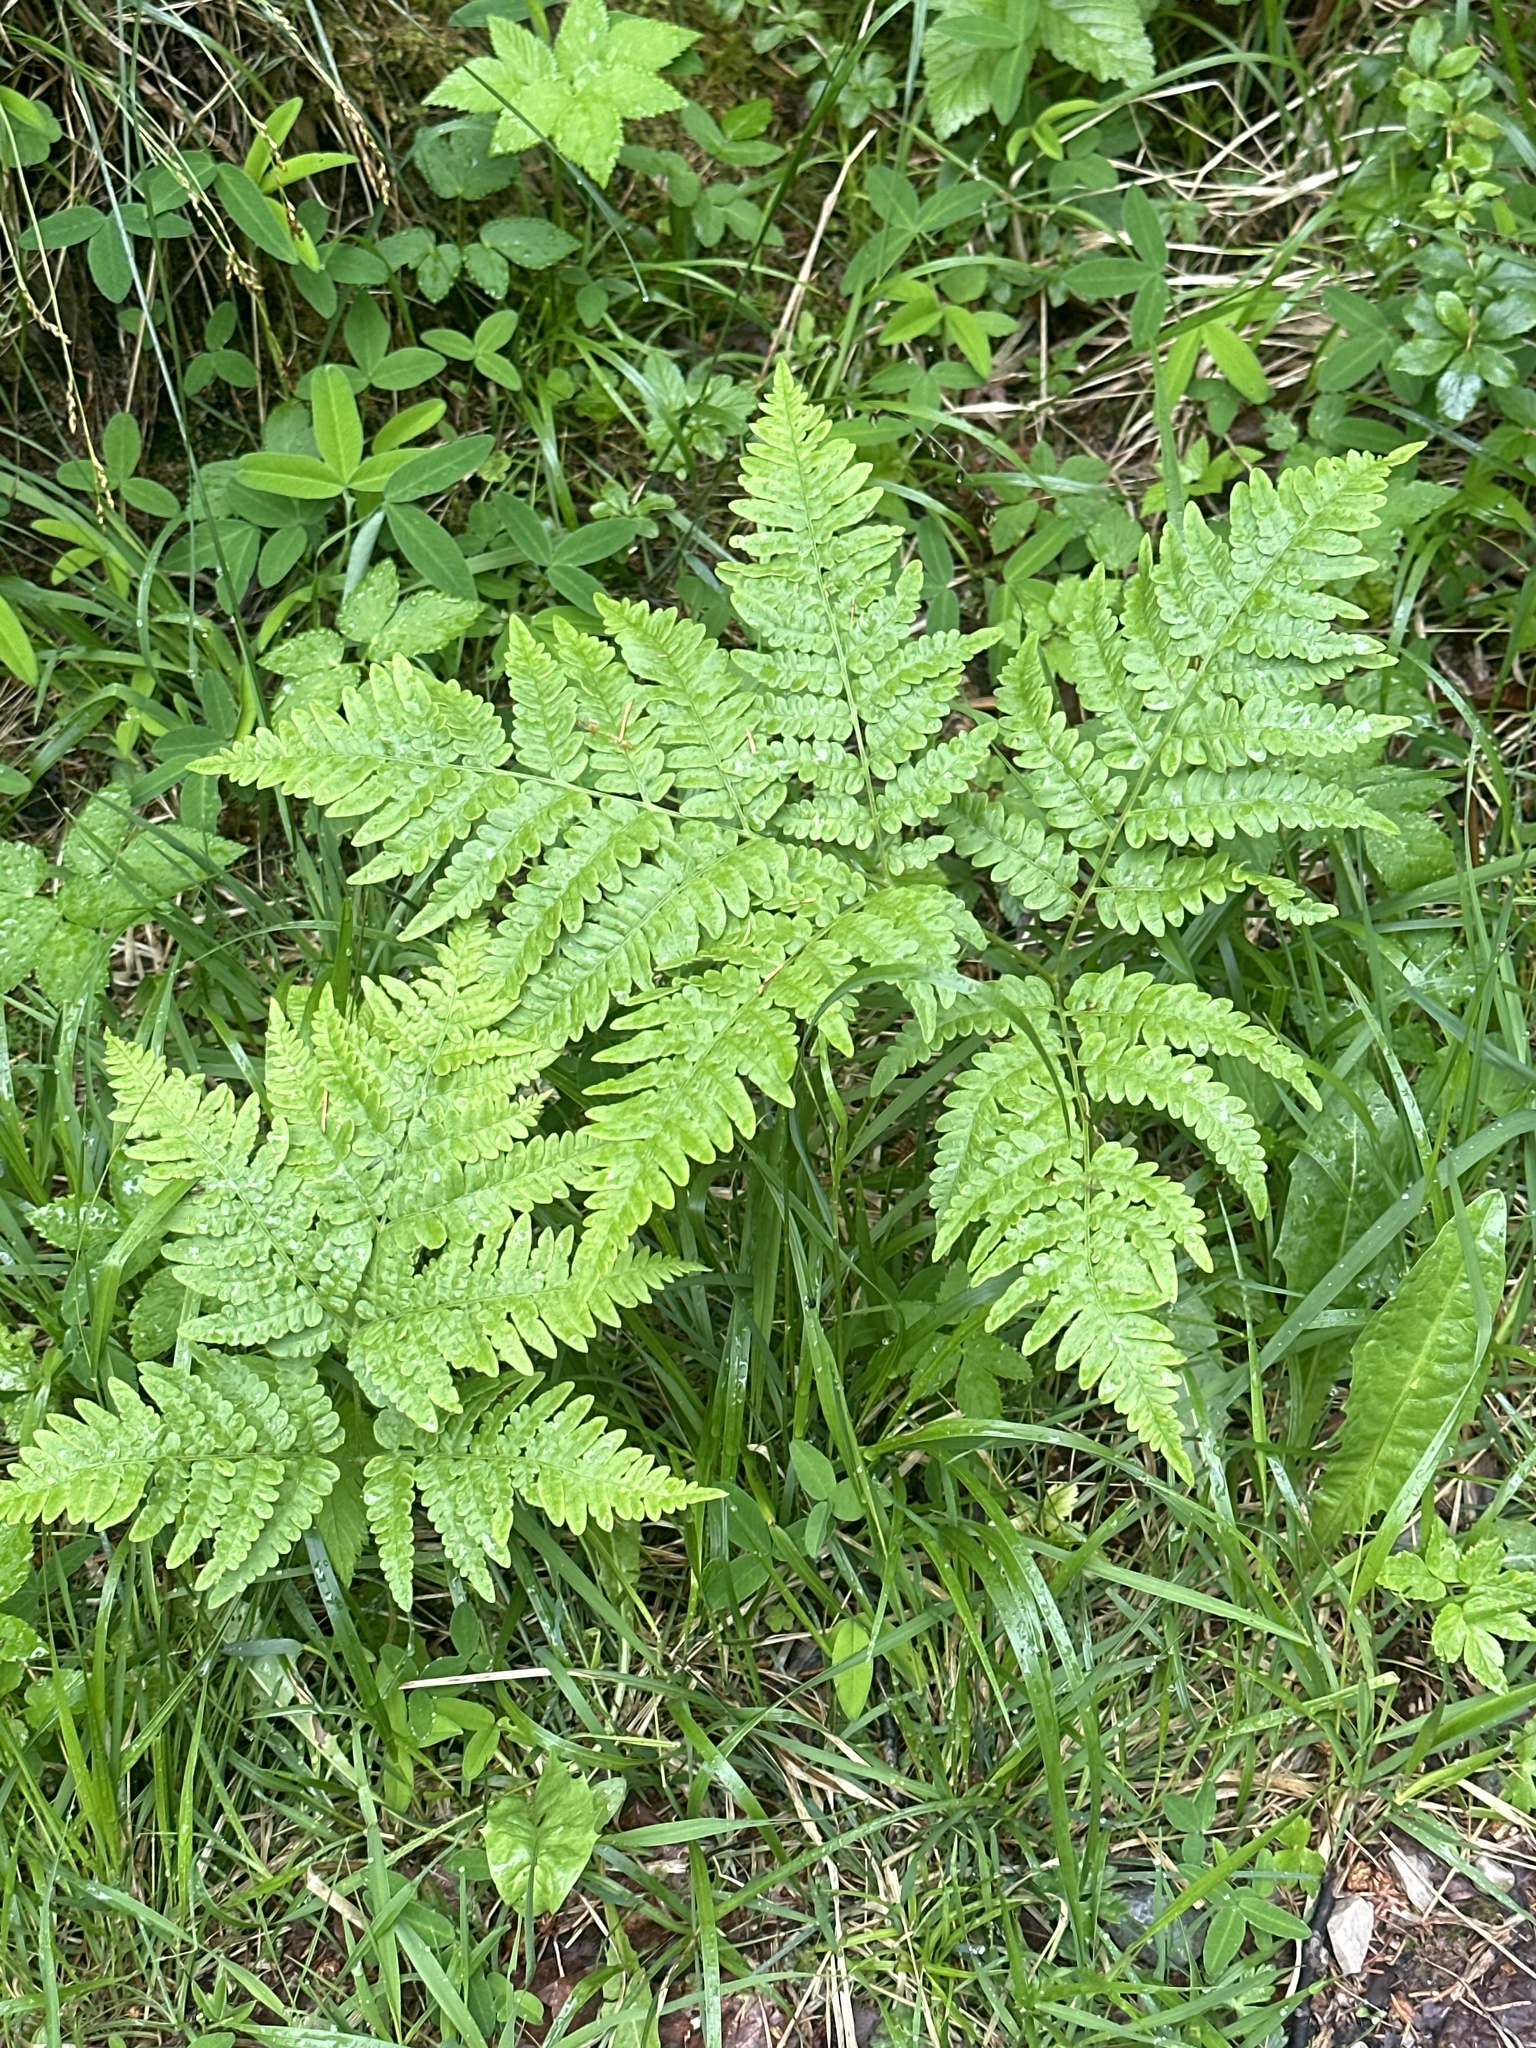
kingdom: Plantae
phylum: Tracheophyta
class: Polypodiopsida
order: Polypodiales
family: Dennstaedtiaceae
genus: Pteridium
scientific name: Pteridium aquilinum
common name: Bracken
